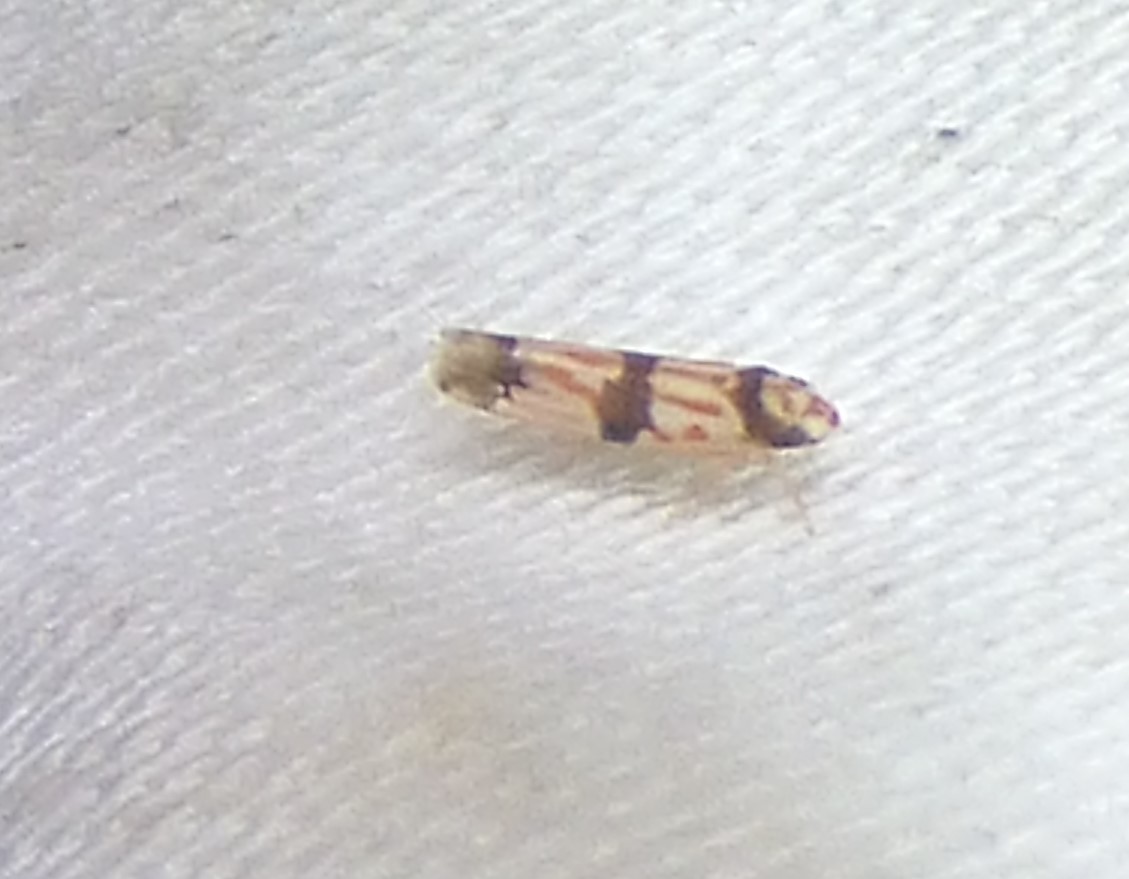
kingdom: Animalia
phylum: Arthropoda
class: Insecta
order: Hemiptera
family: Cicadellidae
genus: Erythroneura
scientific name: Erythroneura calycula
